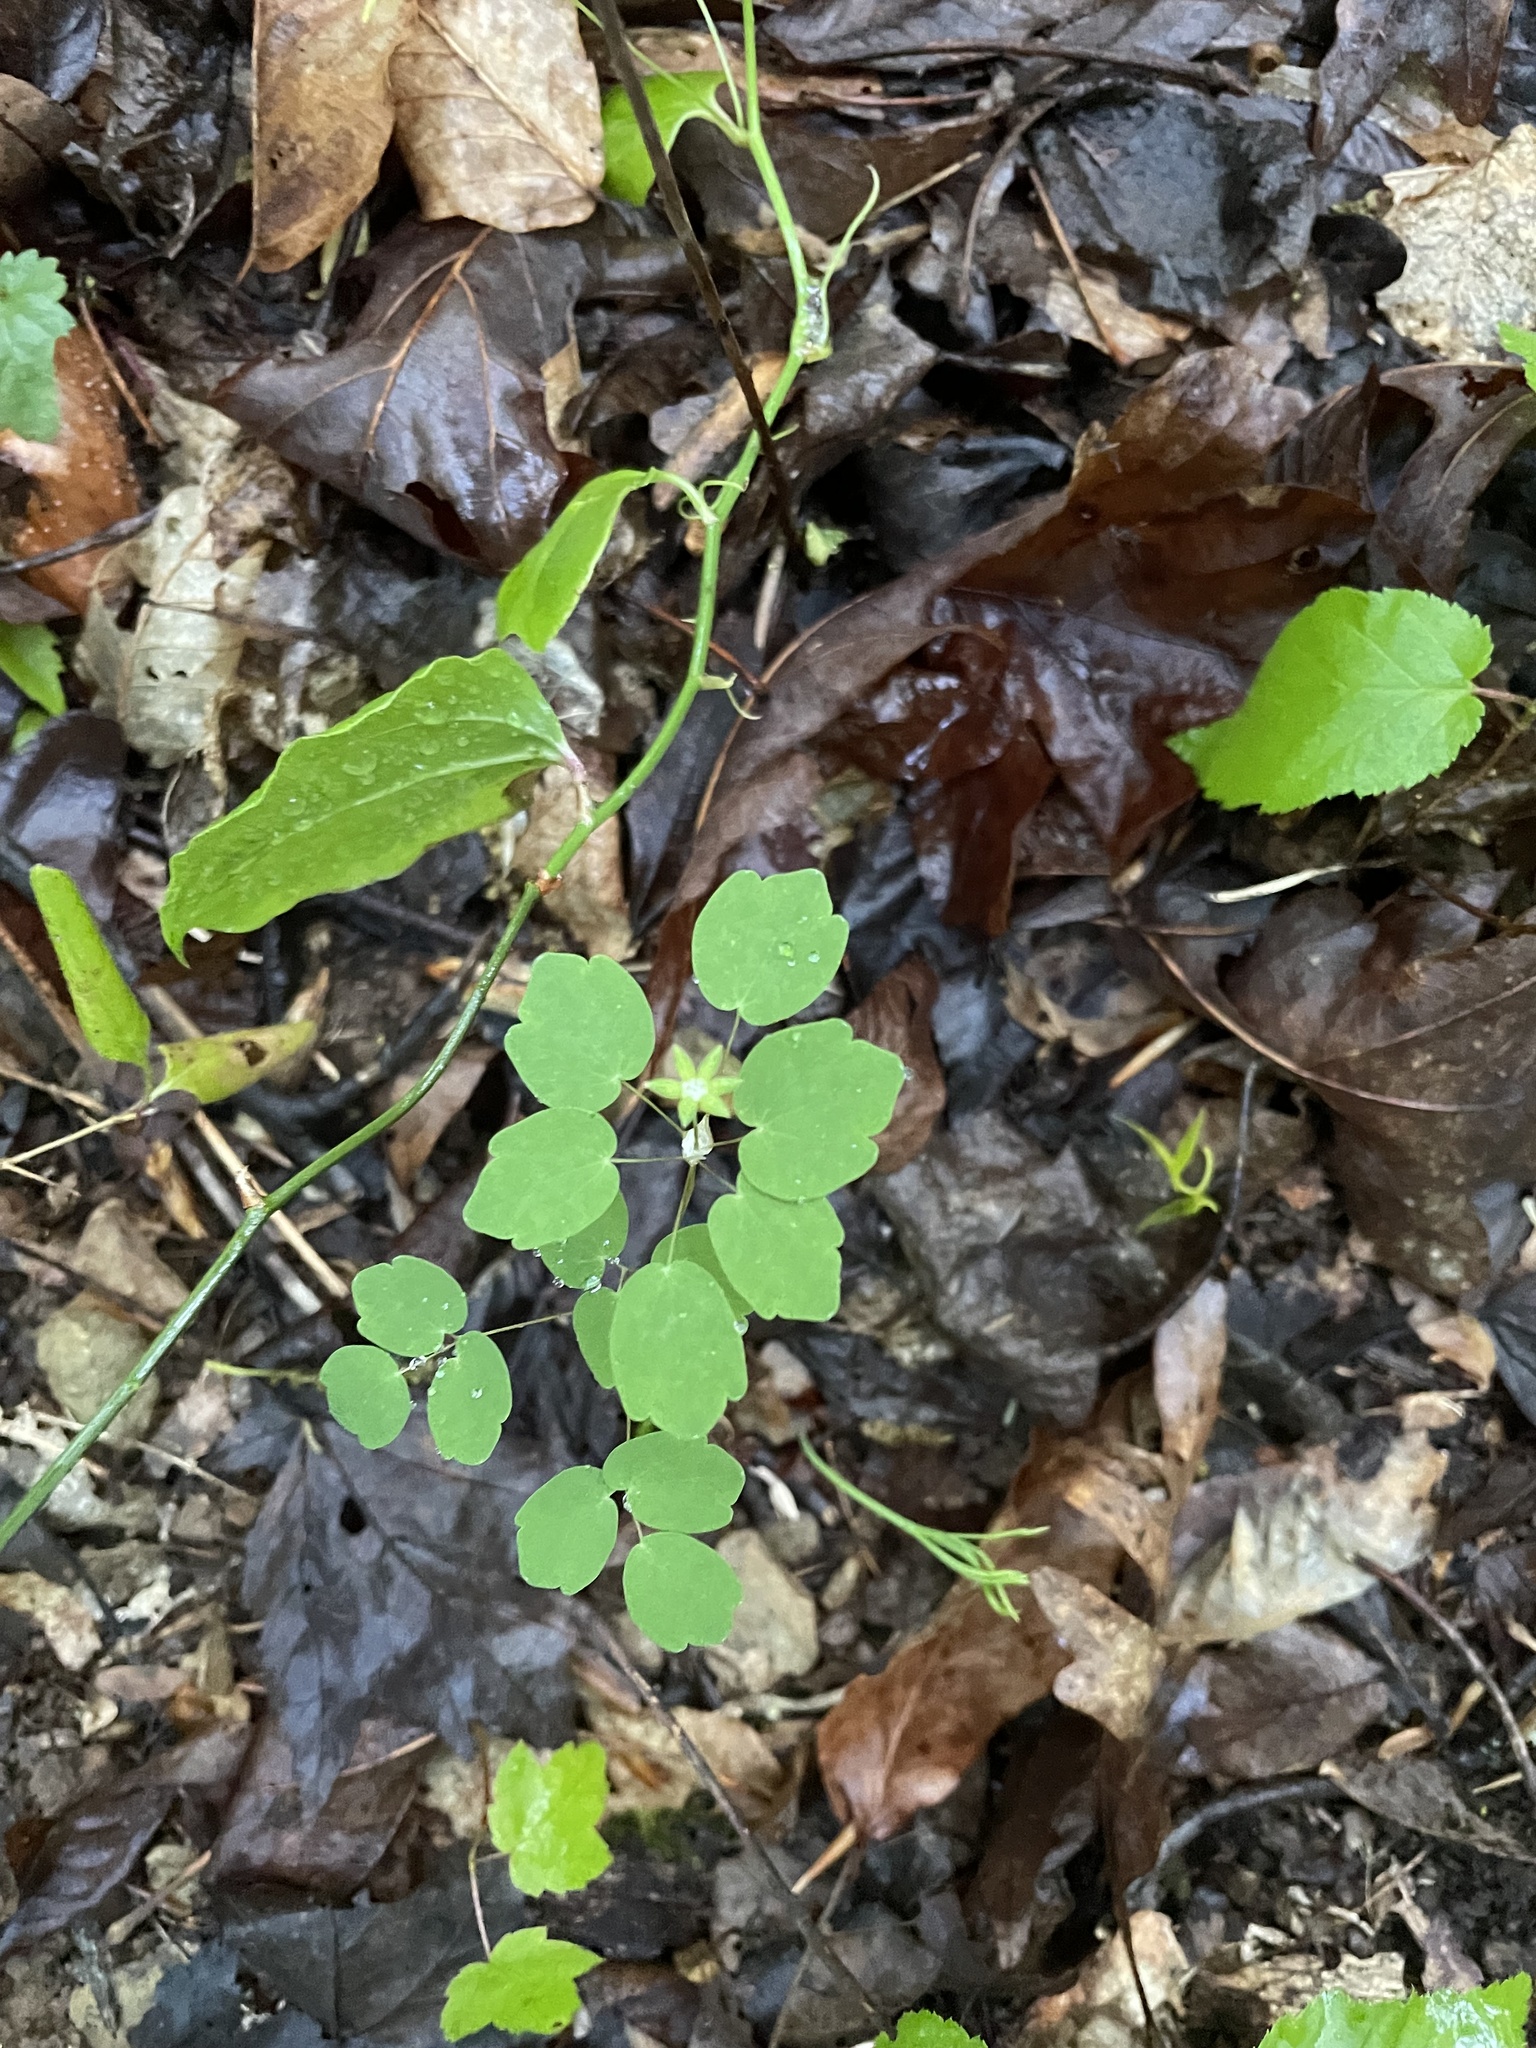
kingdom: Plantae
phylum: Tracheophyta
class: Magnoliopsida
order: Ranunculales
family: Ranunculaceae
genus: Thalictrum
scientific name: Thalictrum thalictroides
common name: Rue-anemone
